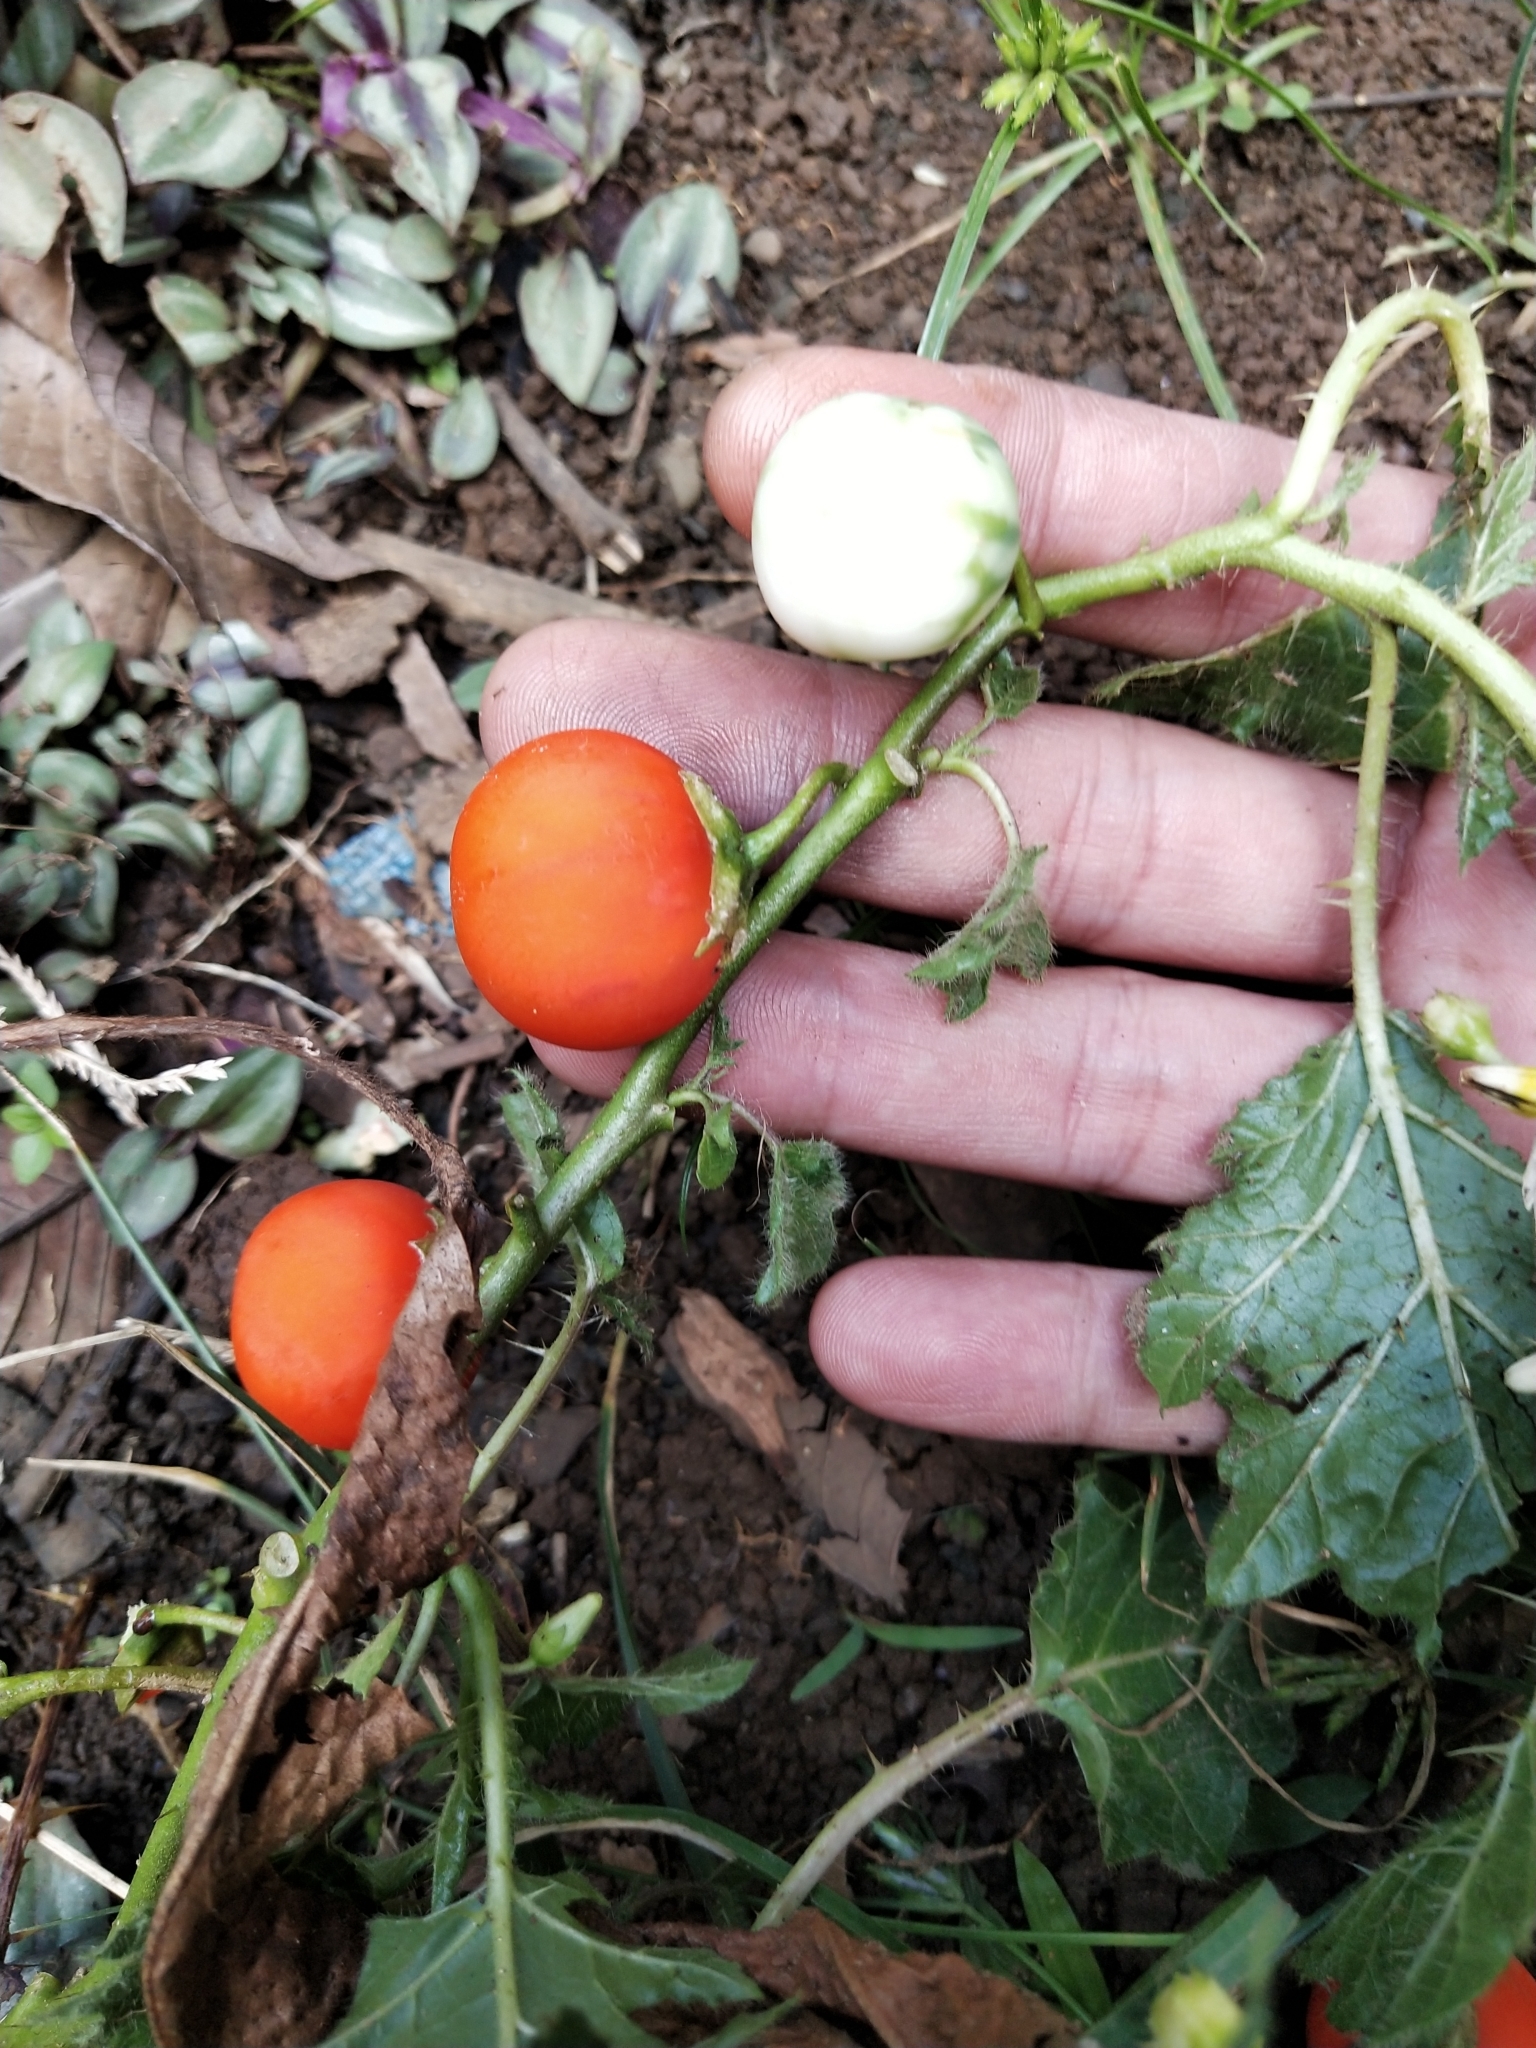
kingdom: Plantae
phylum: Tracheophyta
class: Magnoliopsida
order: Solanales
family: Solanaceae
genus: Solanum
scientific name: Solanum capsicoides
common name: Cockroach berry
